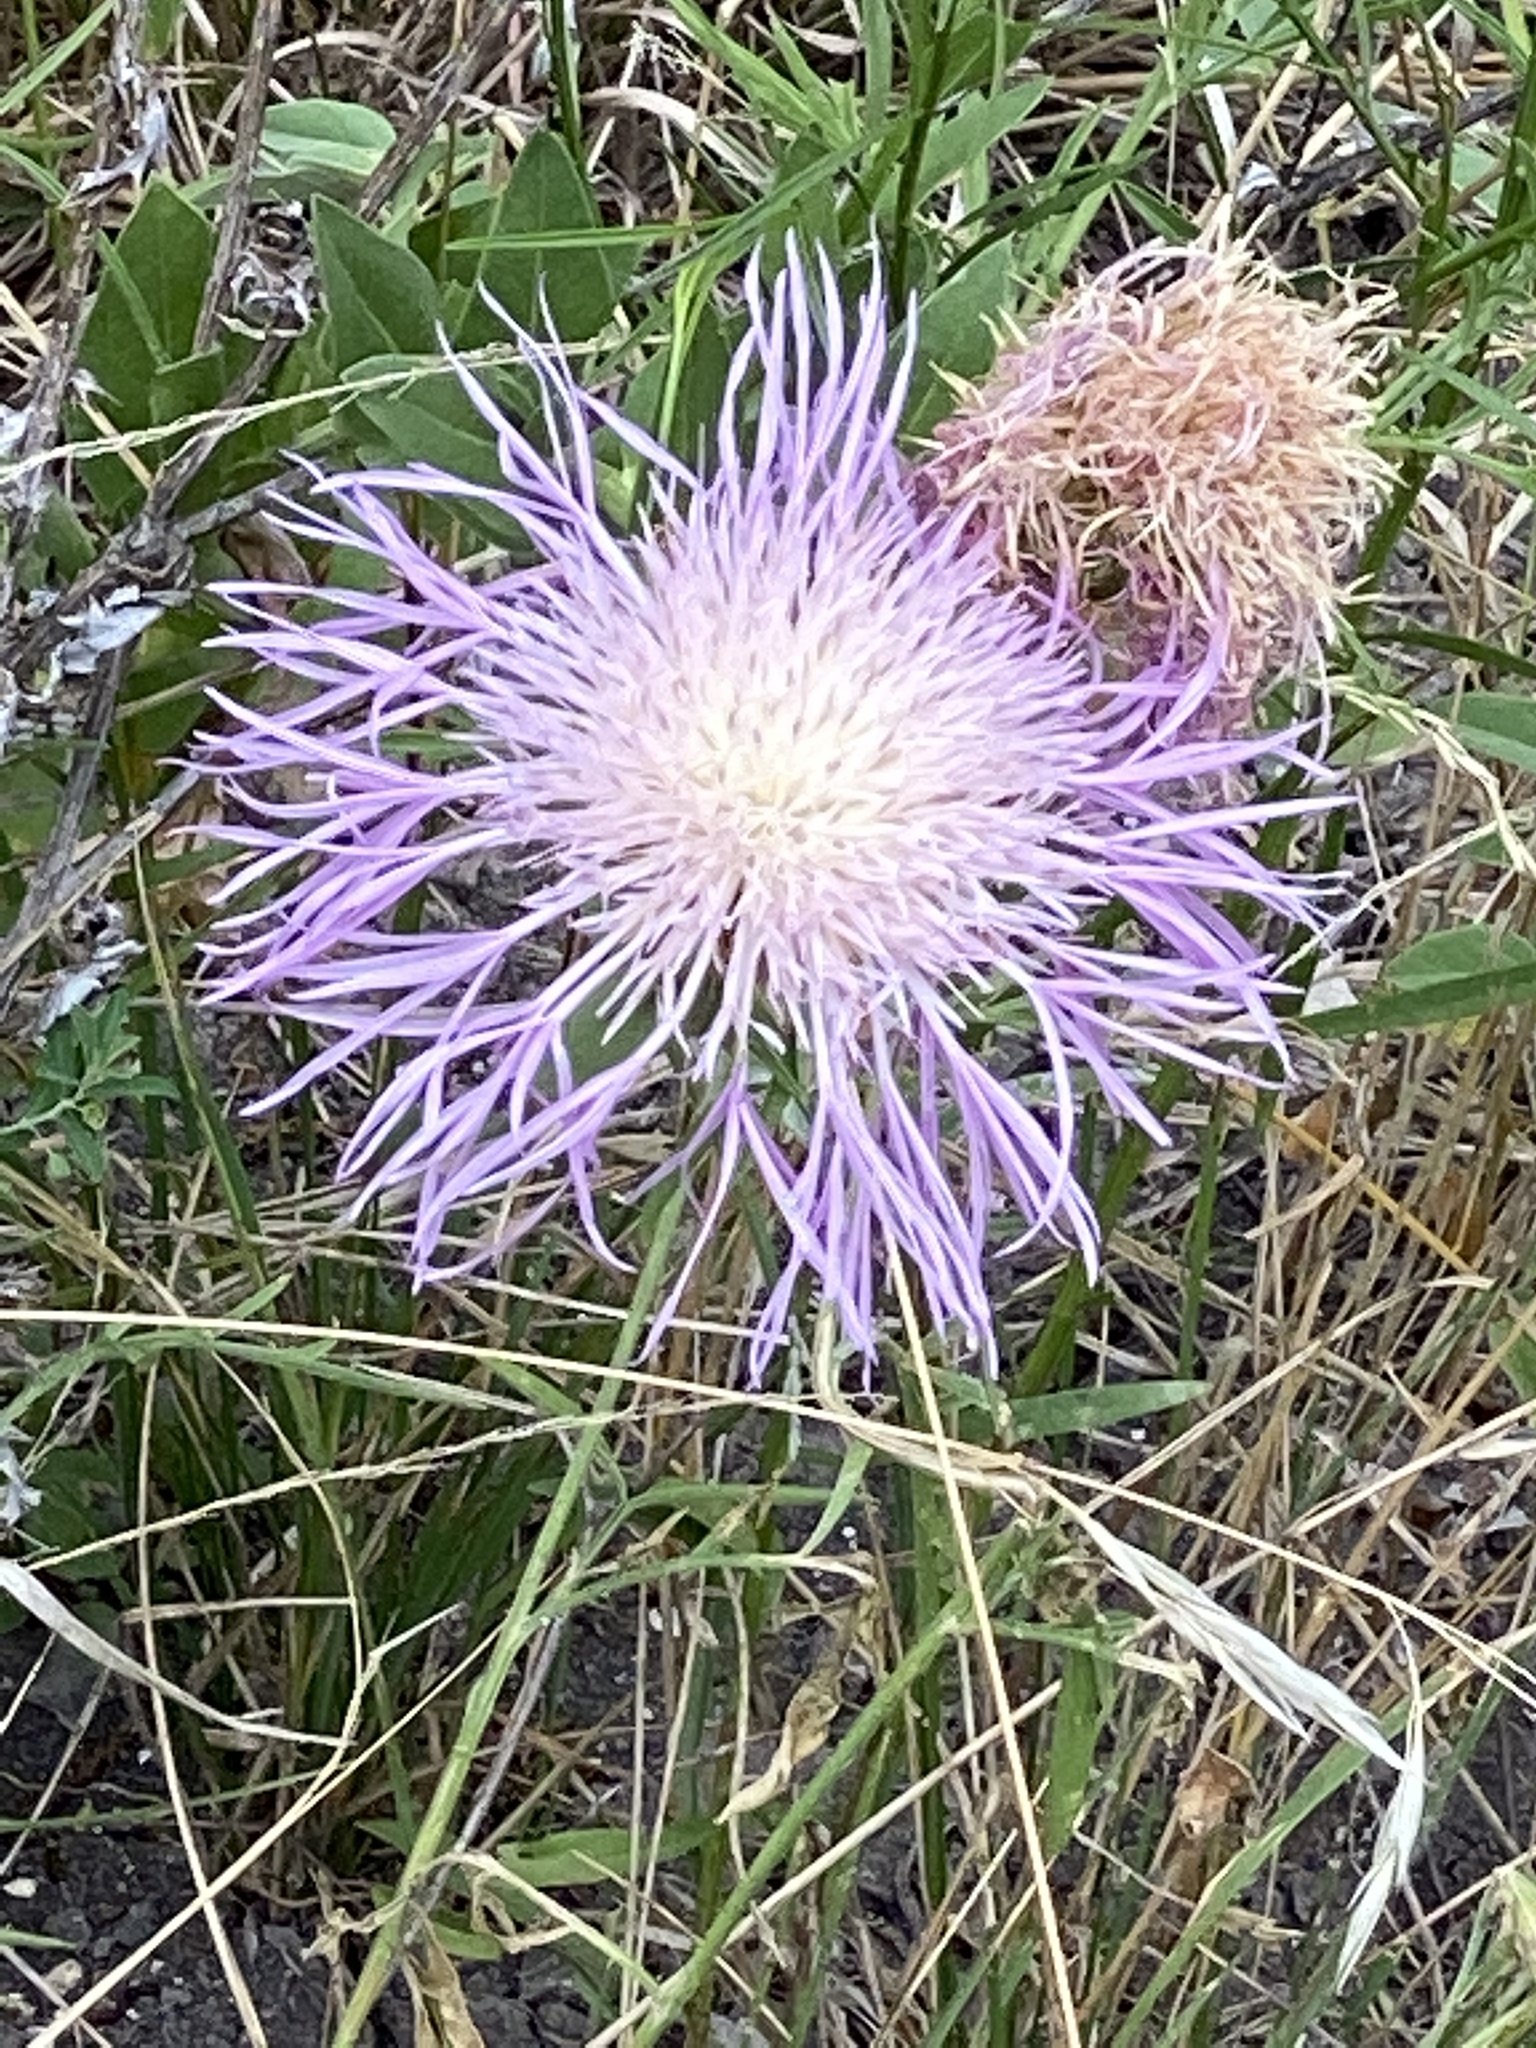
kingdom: Plantae
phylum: Tracheophyta
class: Magnoliopsida
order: Asterales
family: Asteraceae
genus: Plectocephalus
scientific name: Plectocephalus americanus
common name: American basket-flower
